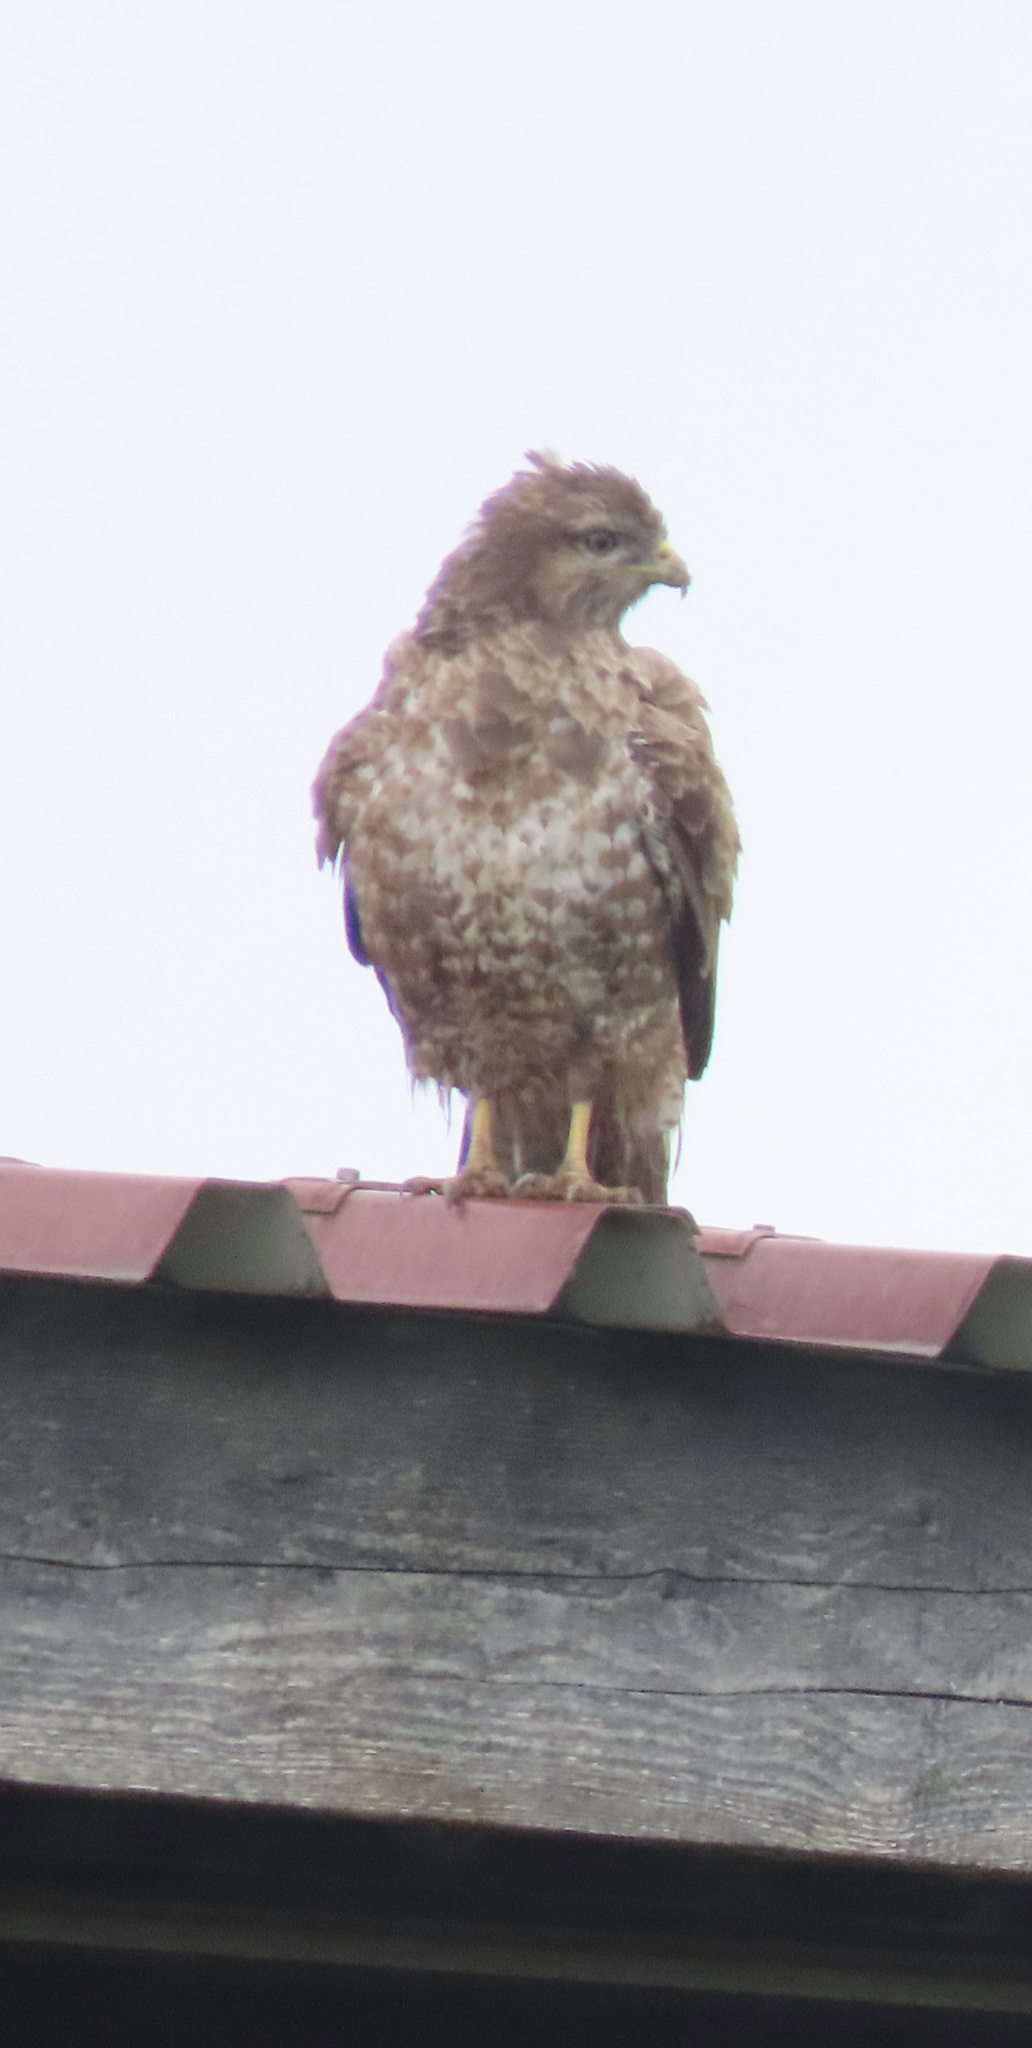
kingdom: Animalia
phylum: Chordata
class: Aves
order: Accipitriformes
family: Accipitridae
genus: Buteo
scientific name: Buteo buteo
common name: Common buzzard
